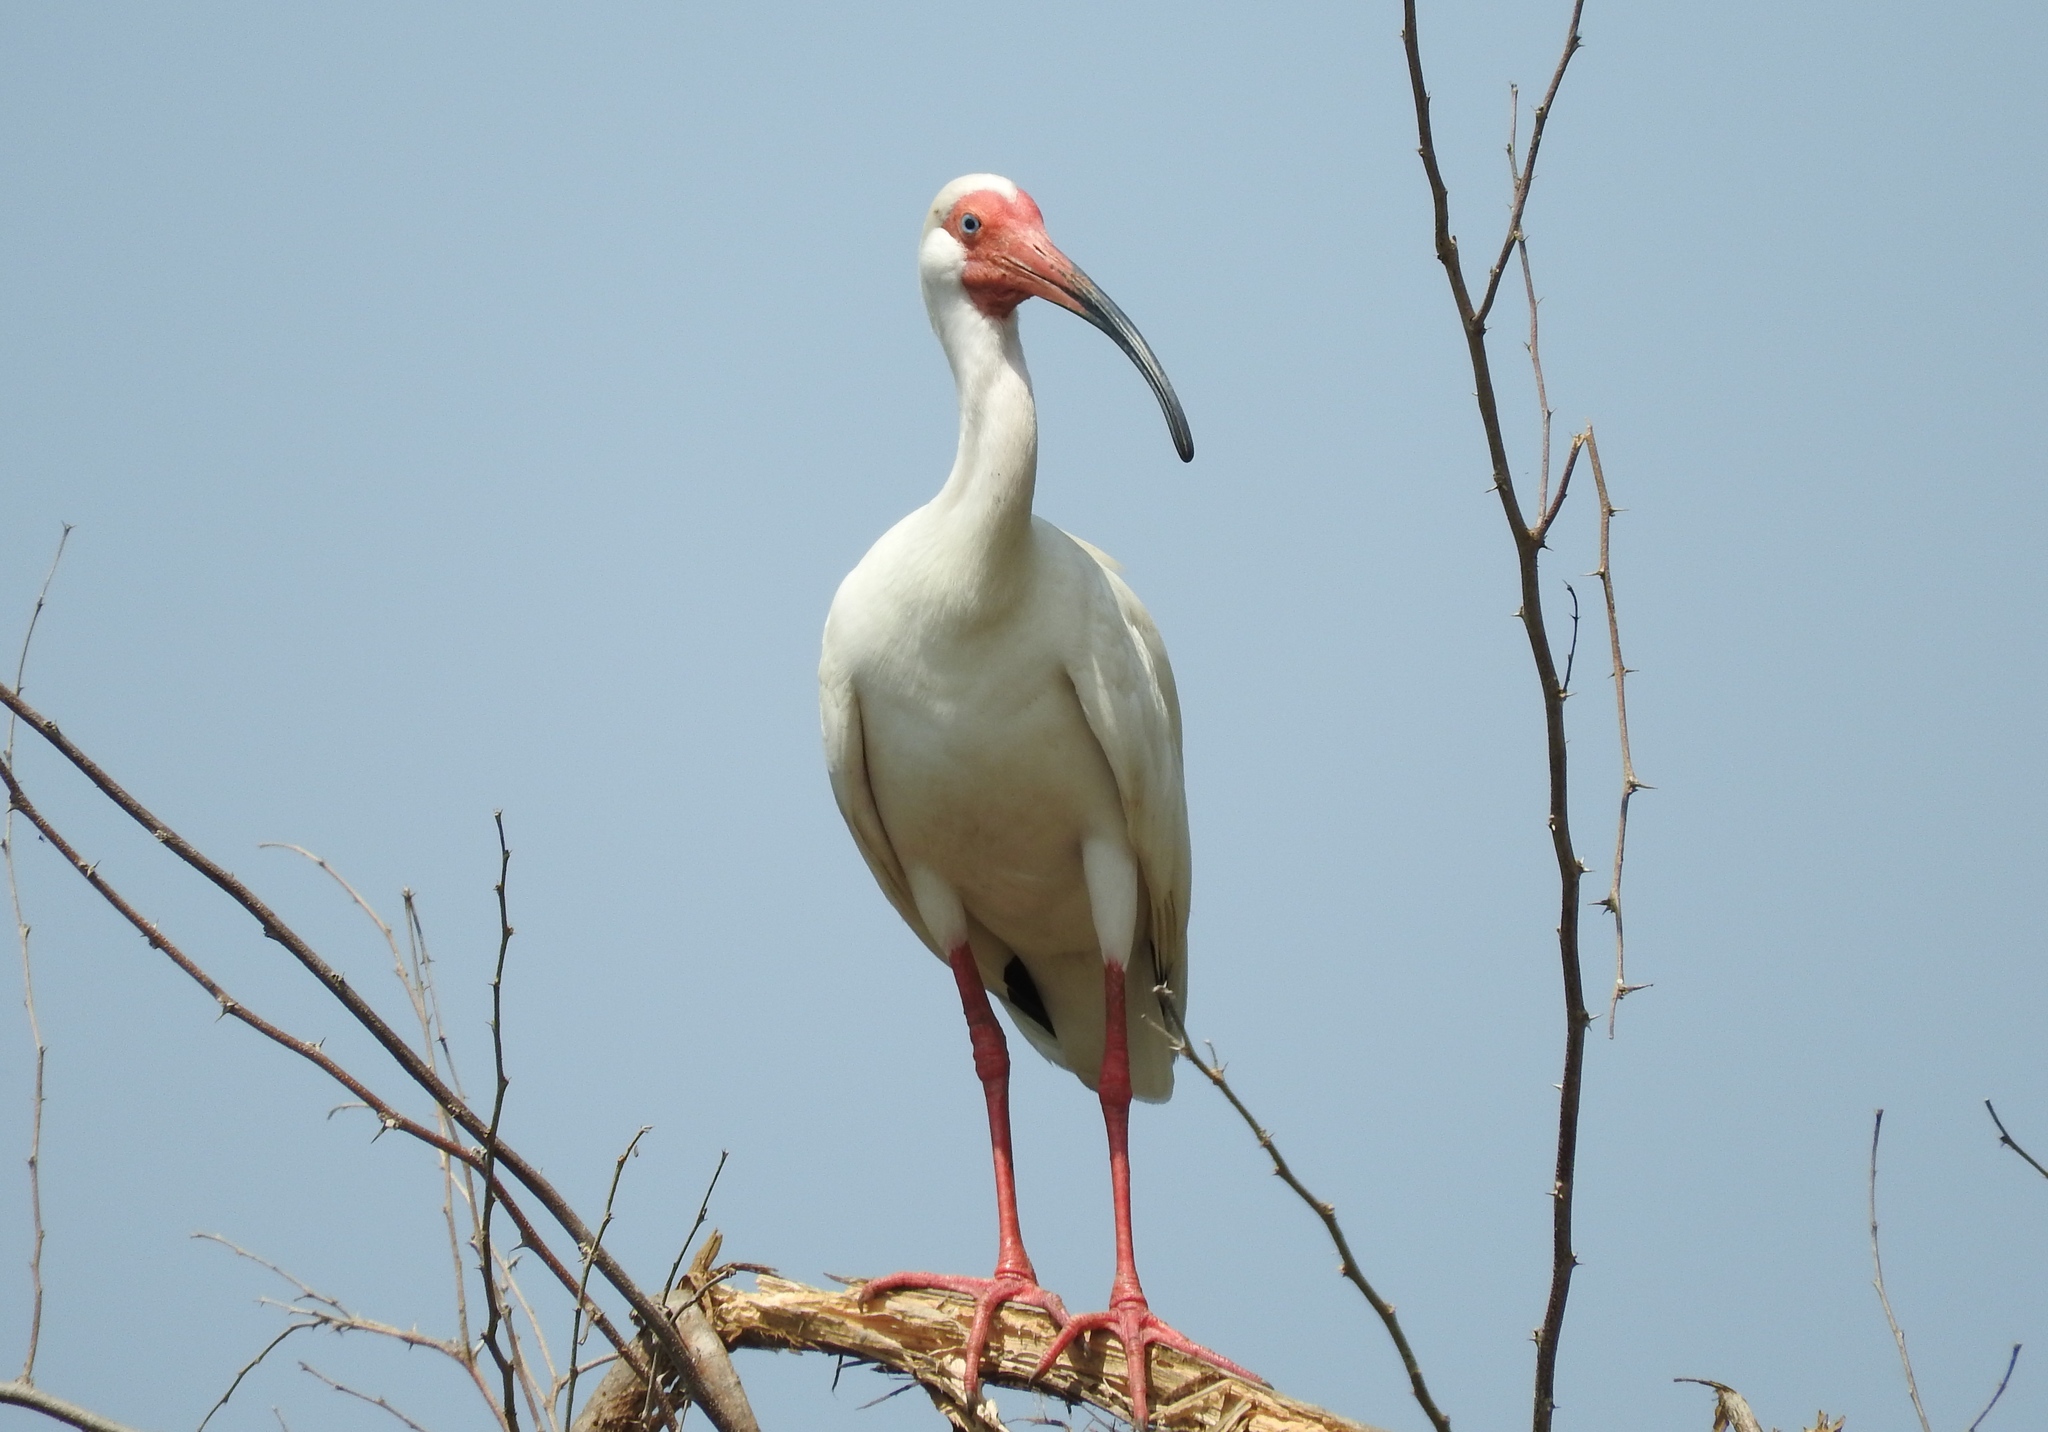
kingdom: Animalia
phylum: Chordata
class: Aves
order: Pelecaniformes
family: Threskiornithidae
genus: Eudocimus
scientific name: Eudocimus albus
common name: White ibis
